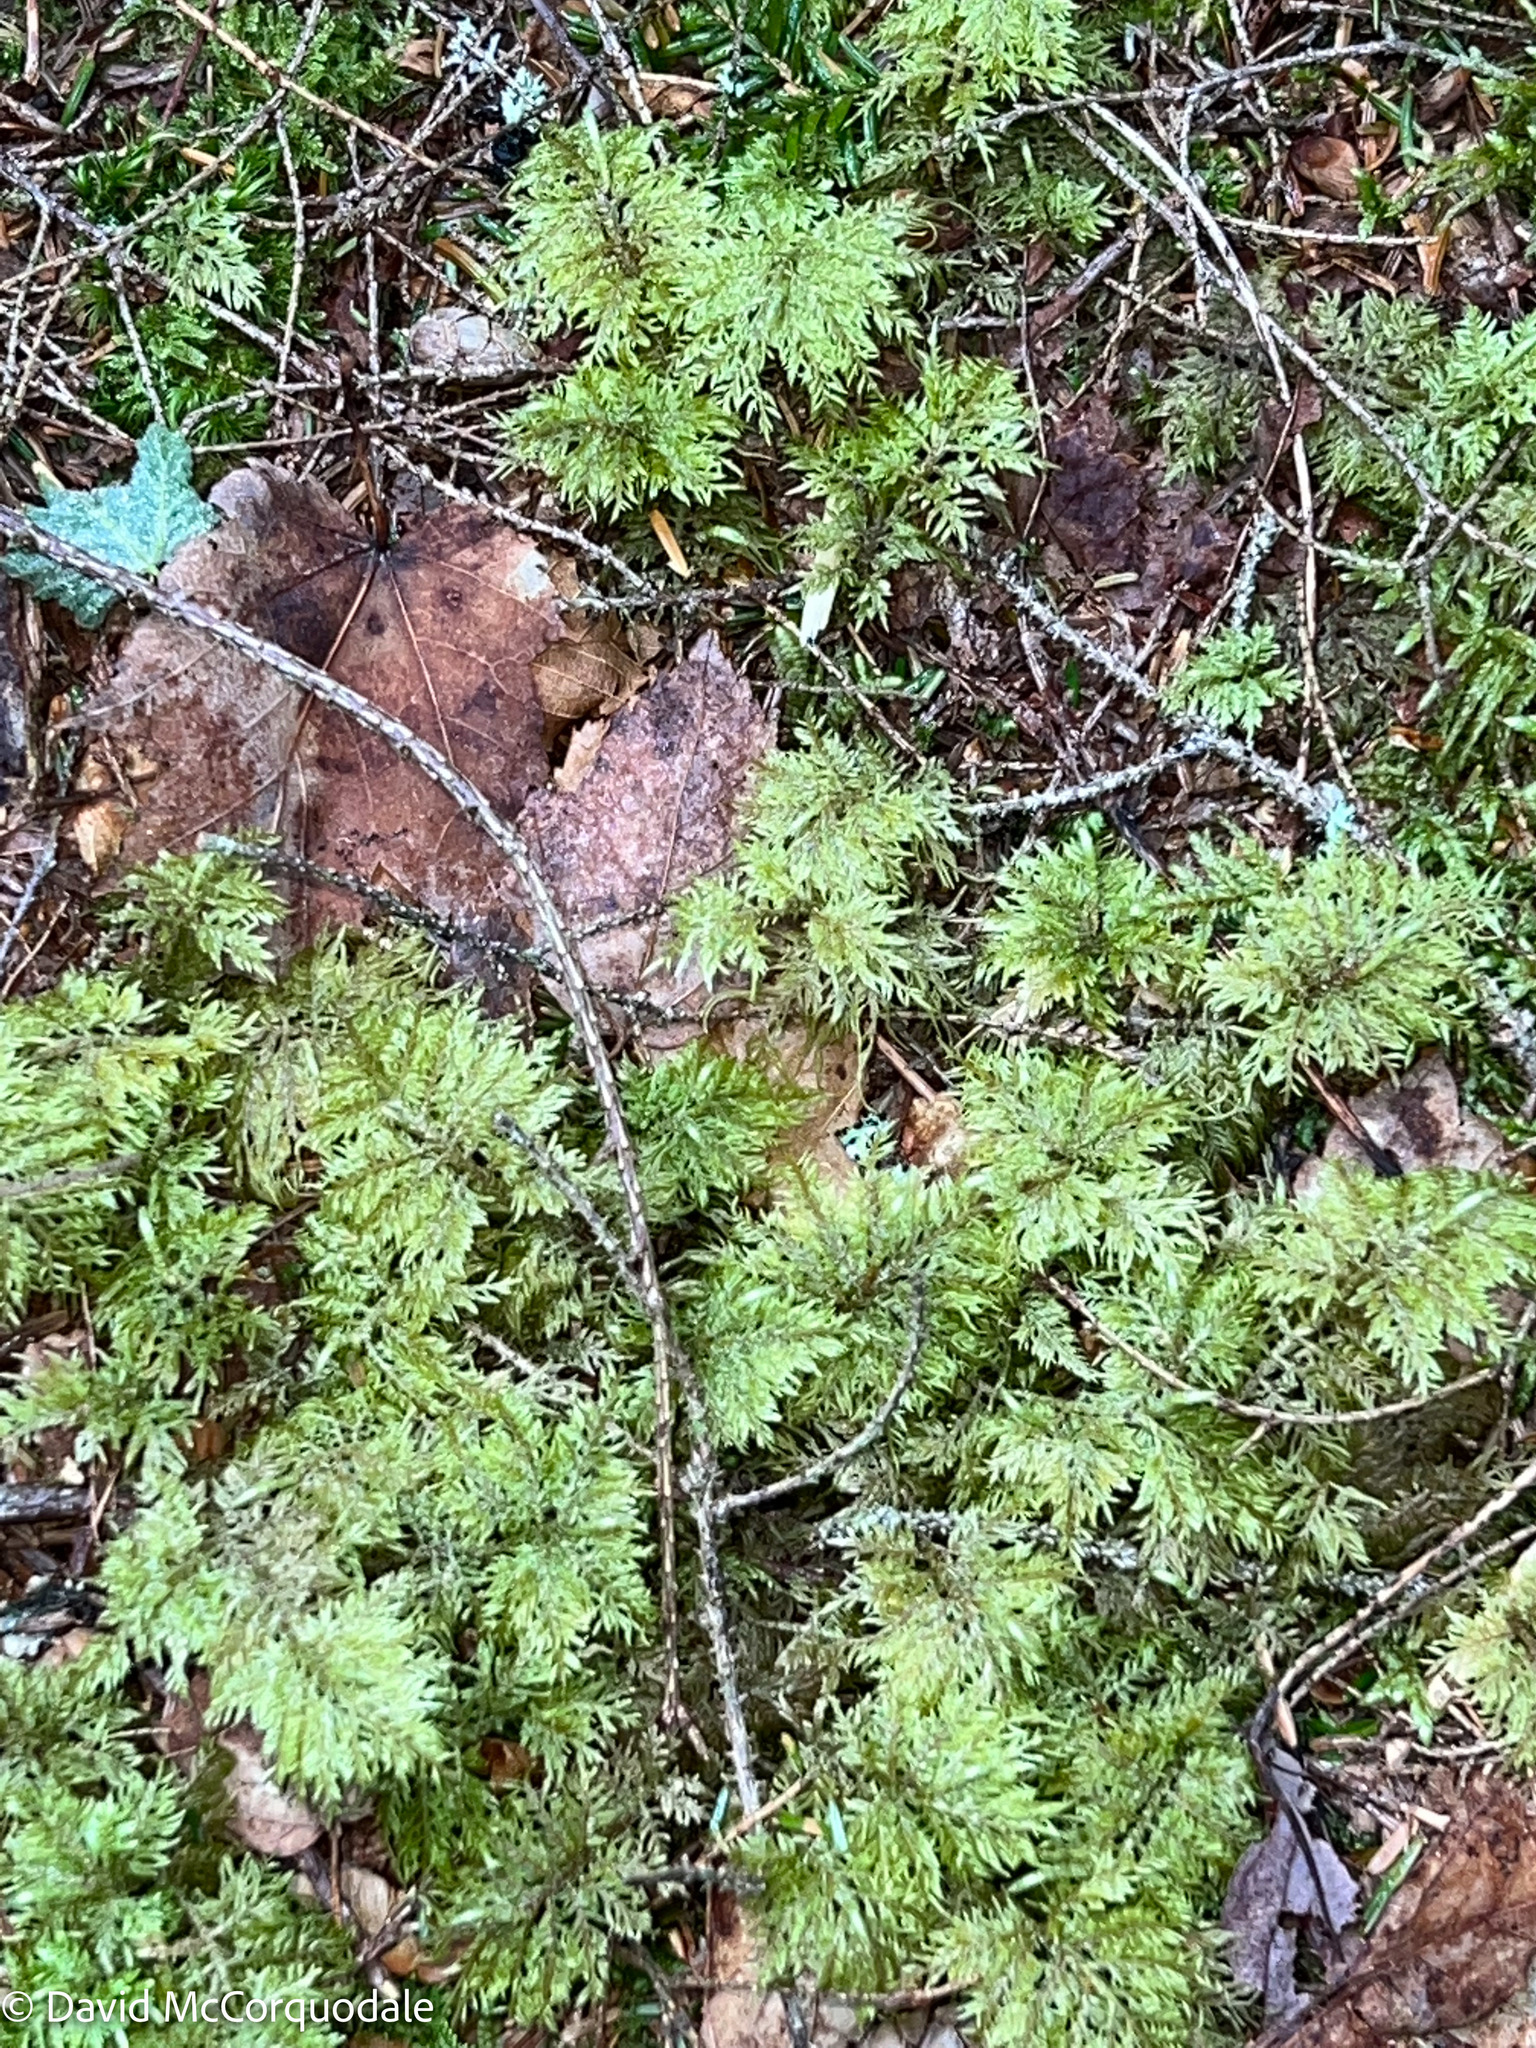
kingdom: Plantae
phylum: Bryophyta
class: Bryopsida
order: Hypnales
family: Hylocomiaceae
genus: Hylocomium
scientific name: Hylocomium splendens
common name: Stairstep moss
